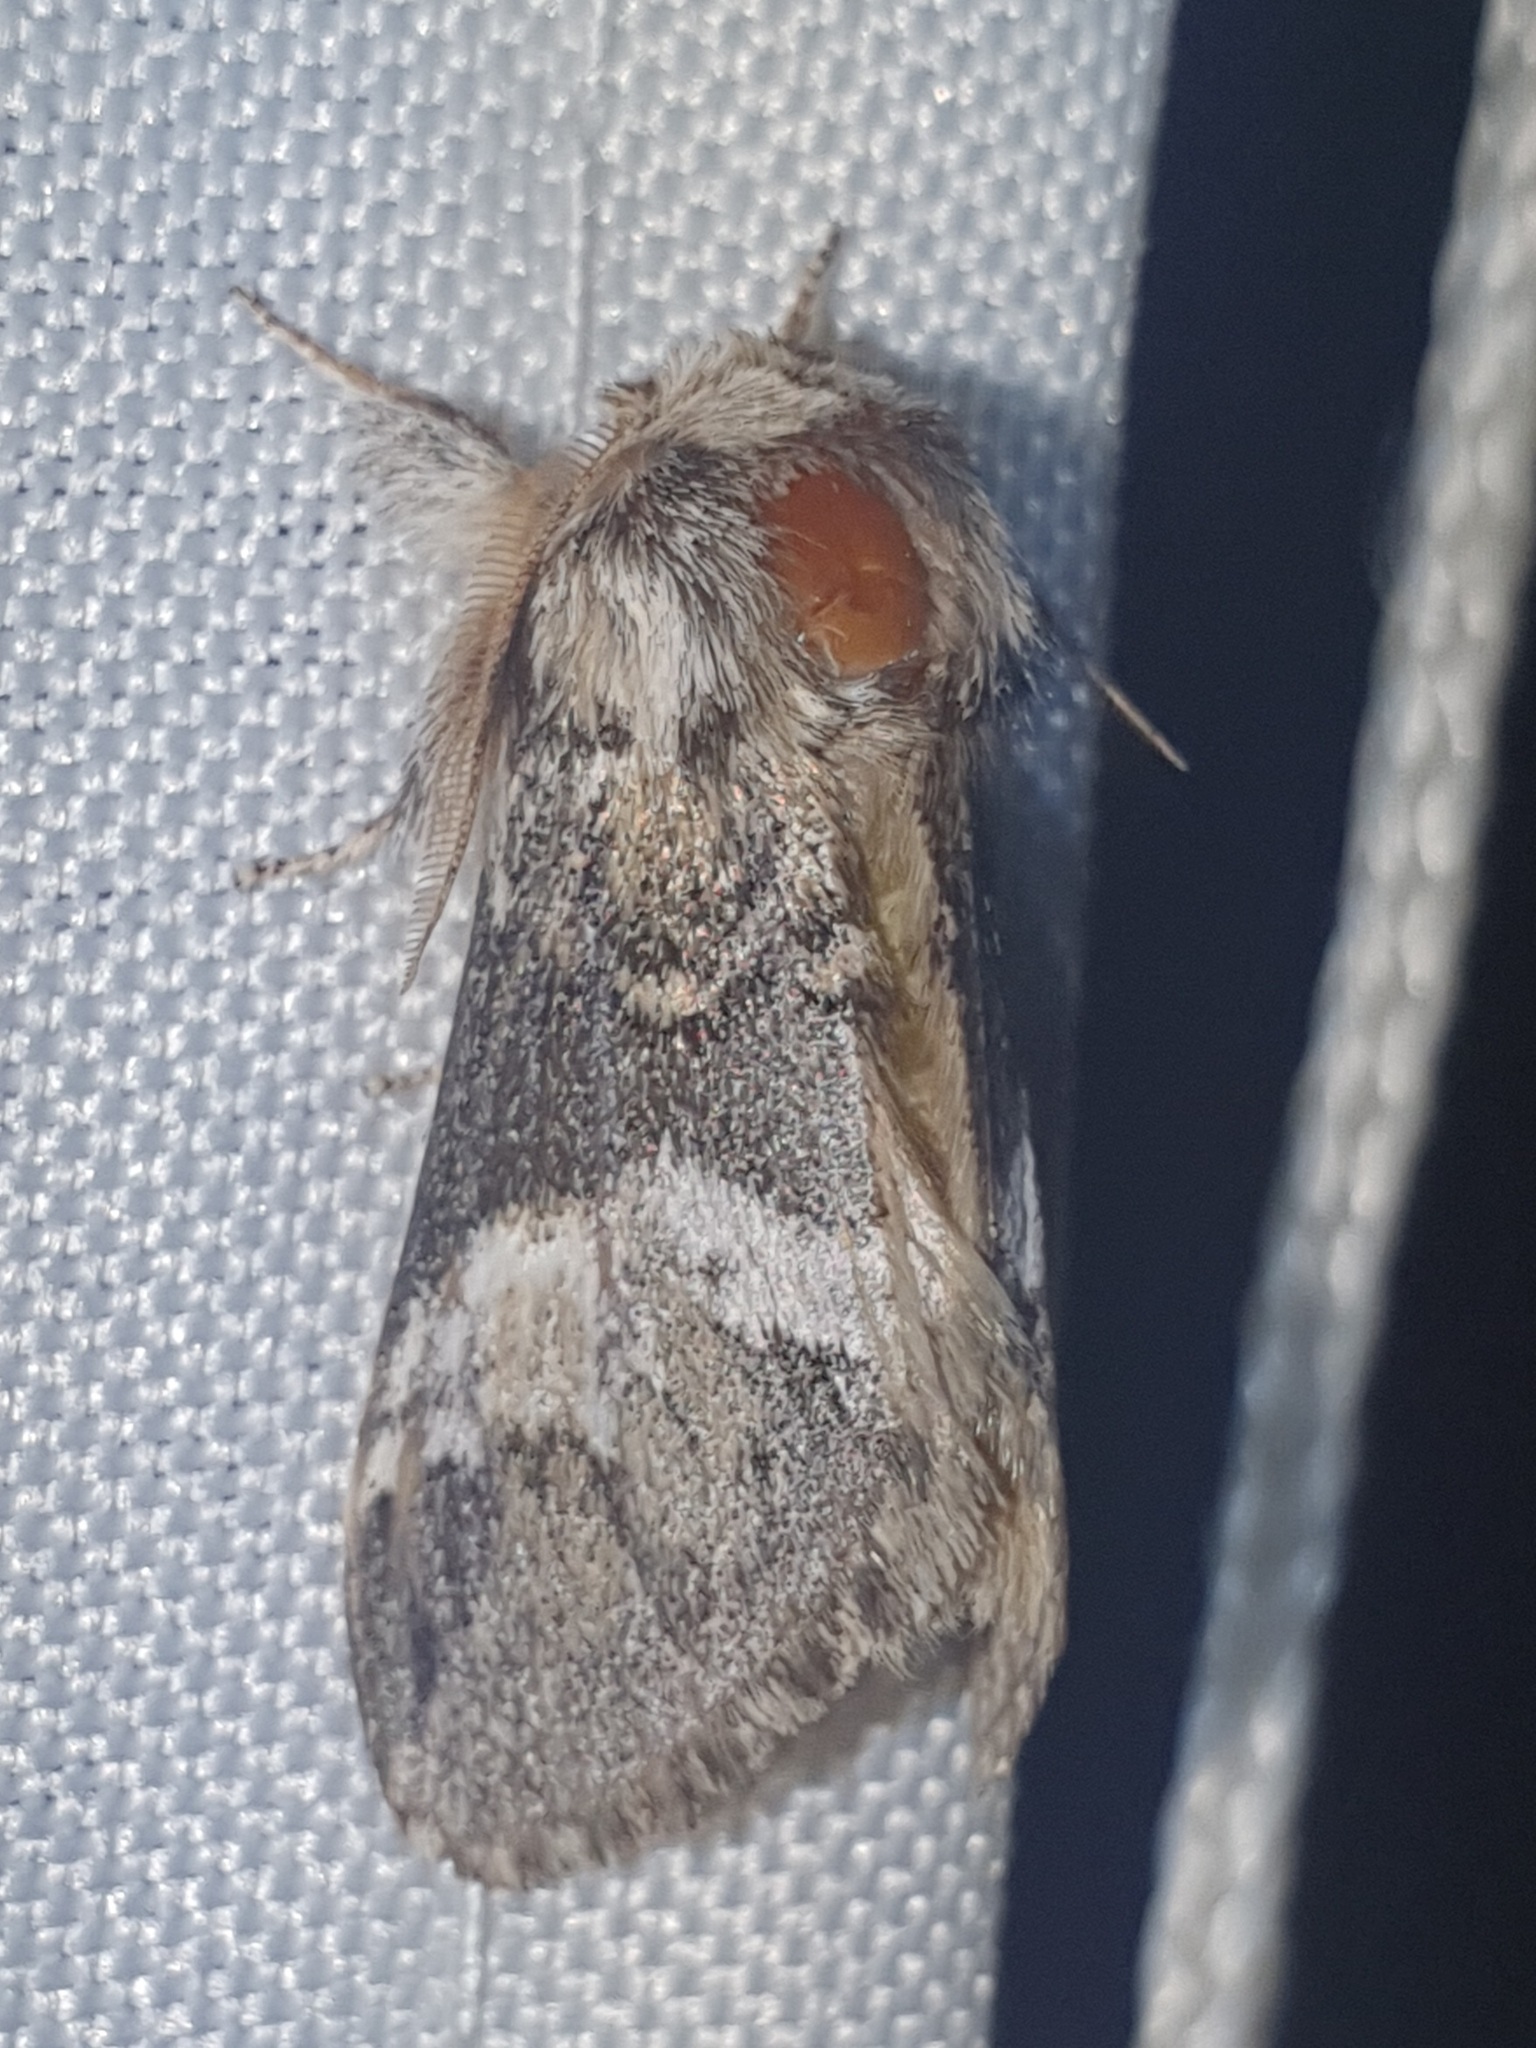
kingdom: Animalia
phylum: Arthropoda
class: Insecta
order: Lepidoptera
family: Notodontidae
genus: Drymonia
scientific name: Drymonia dodonaea
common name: Marbled brown
